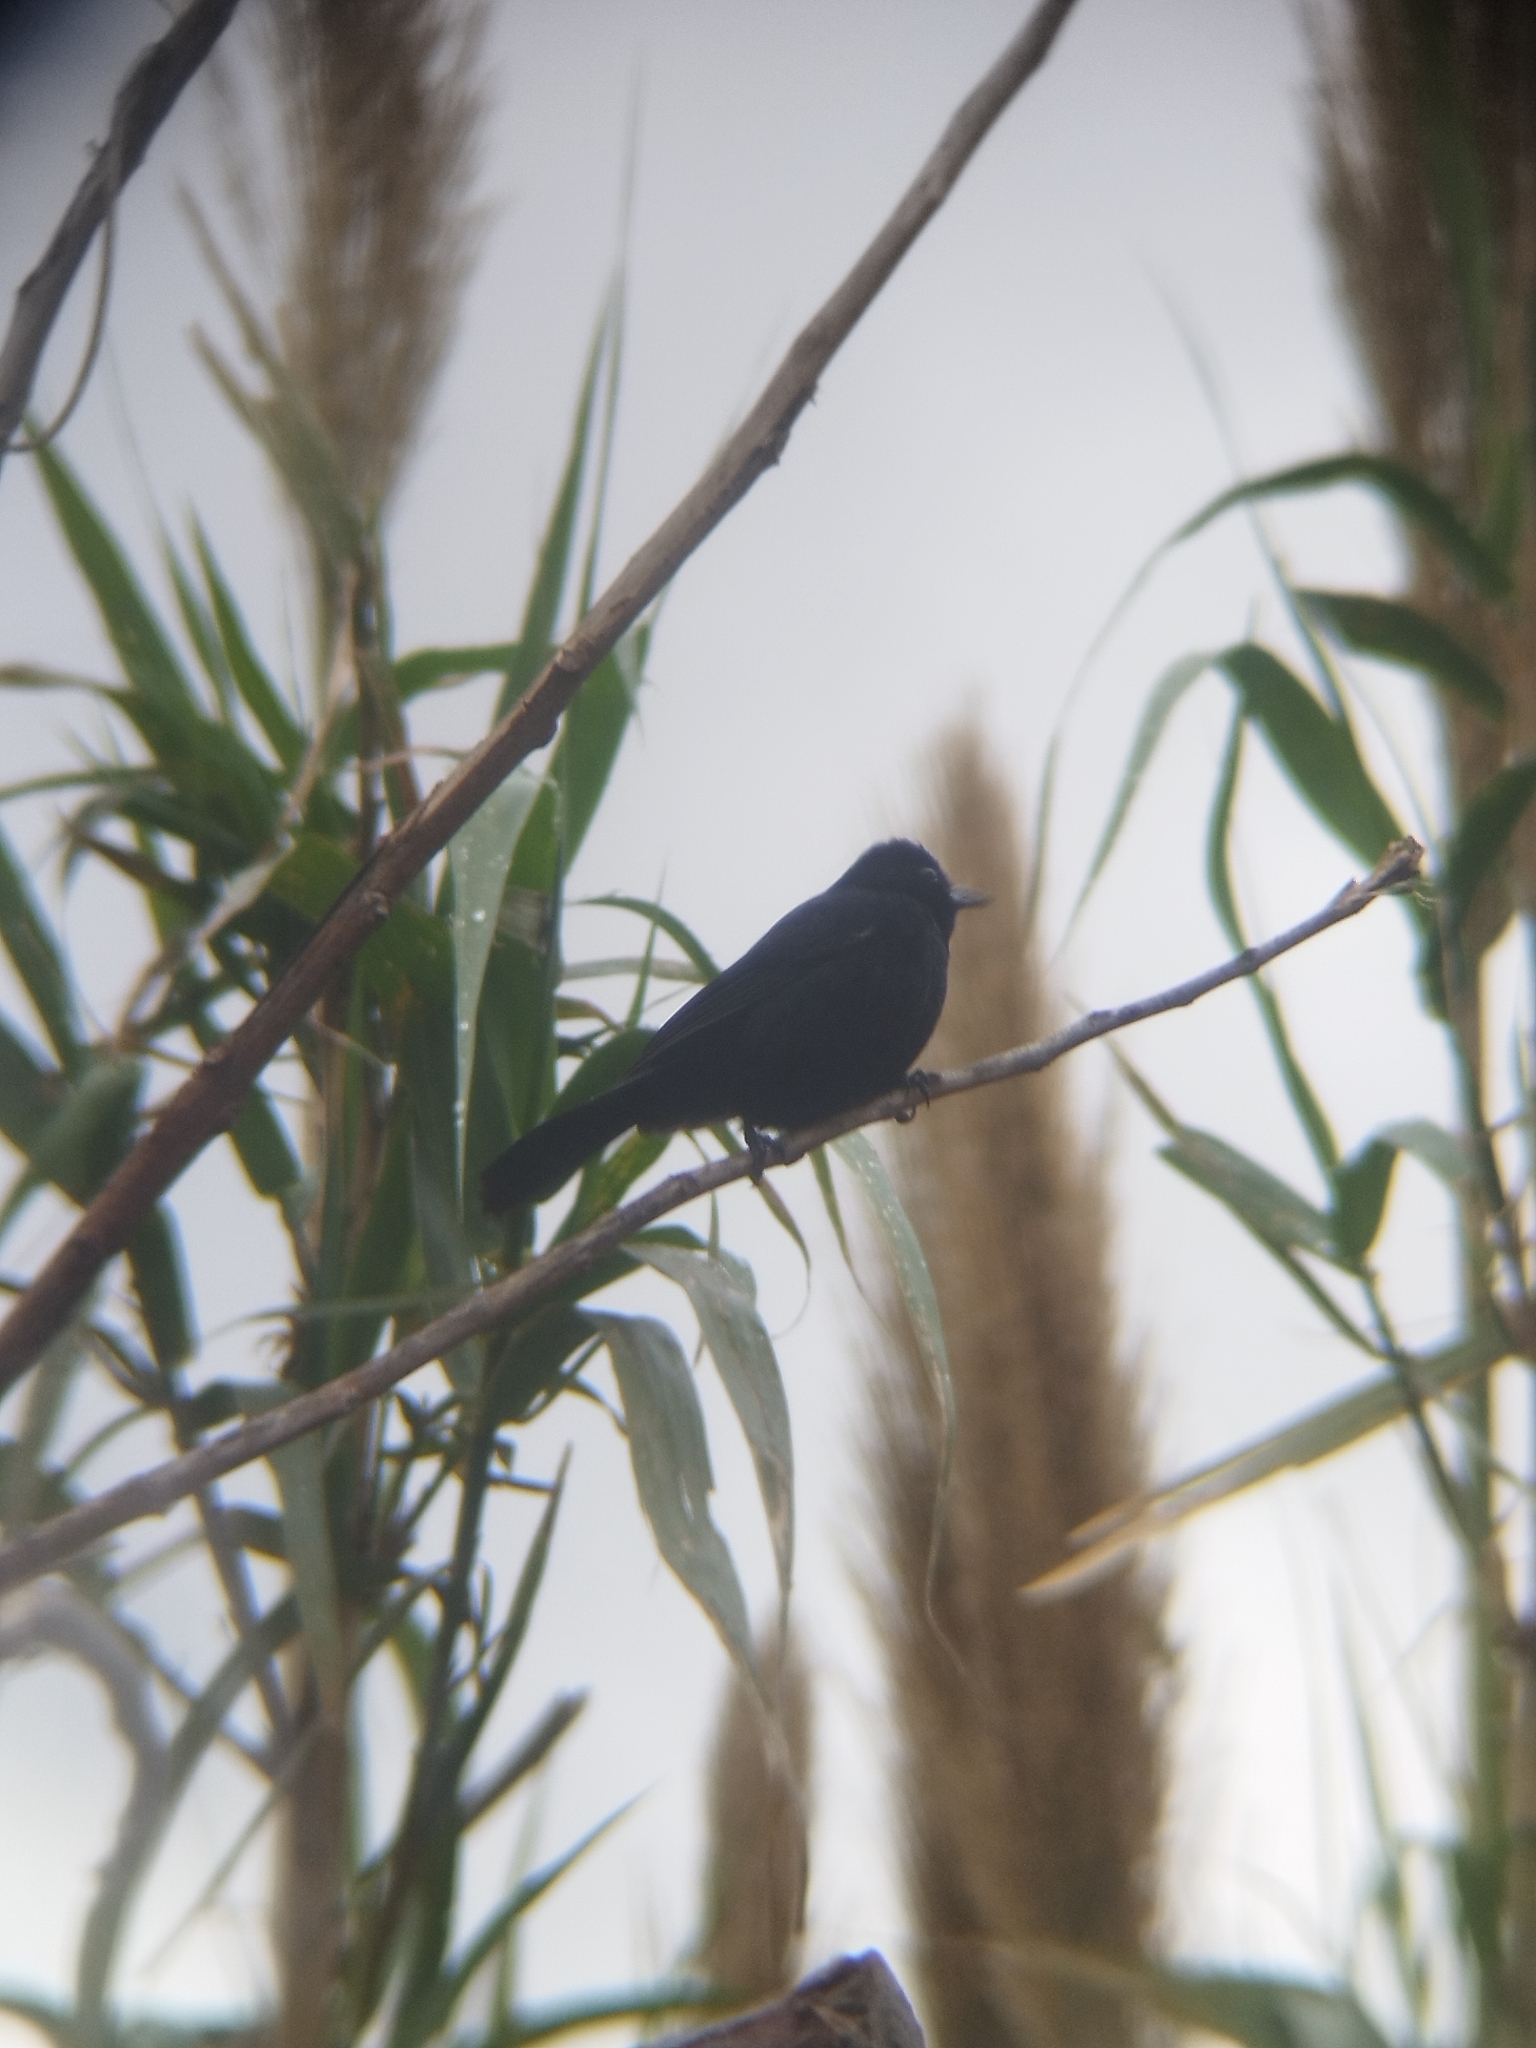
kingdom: Animalia
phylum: Chordata
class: Aves
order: Passeriformes
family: Thraupidae
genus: Tachyphonus
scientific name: Tachyphonus rufus
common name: White-lined tanager
